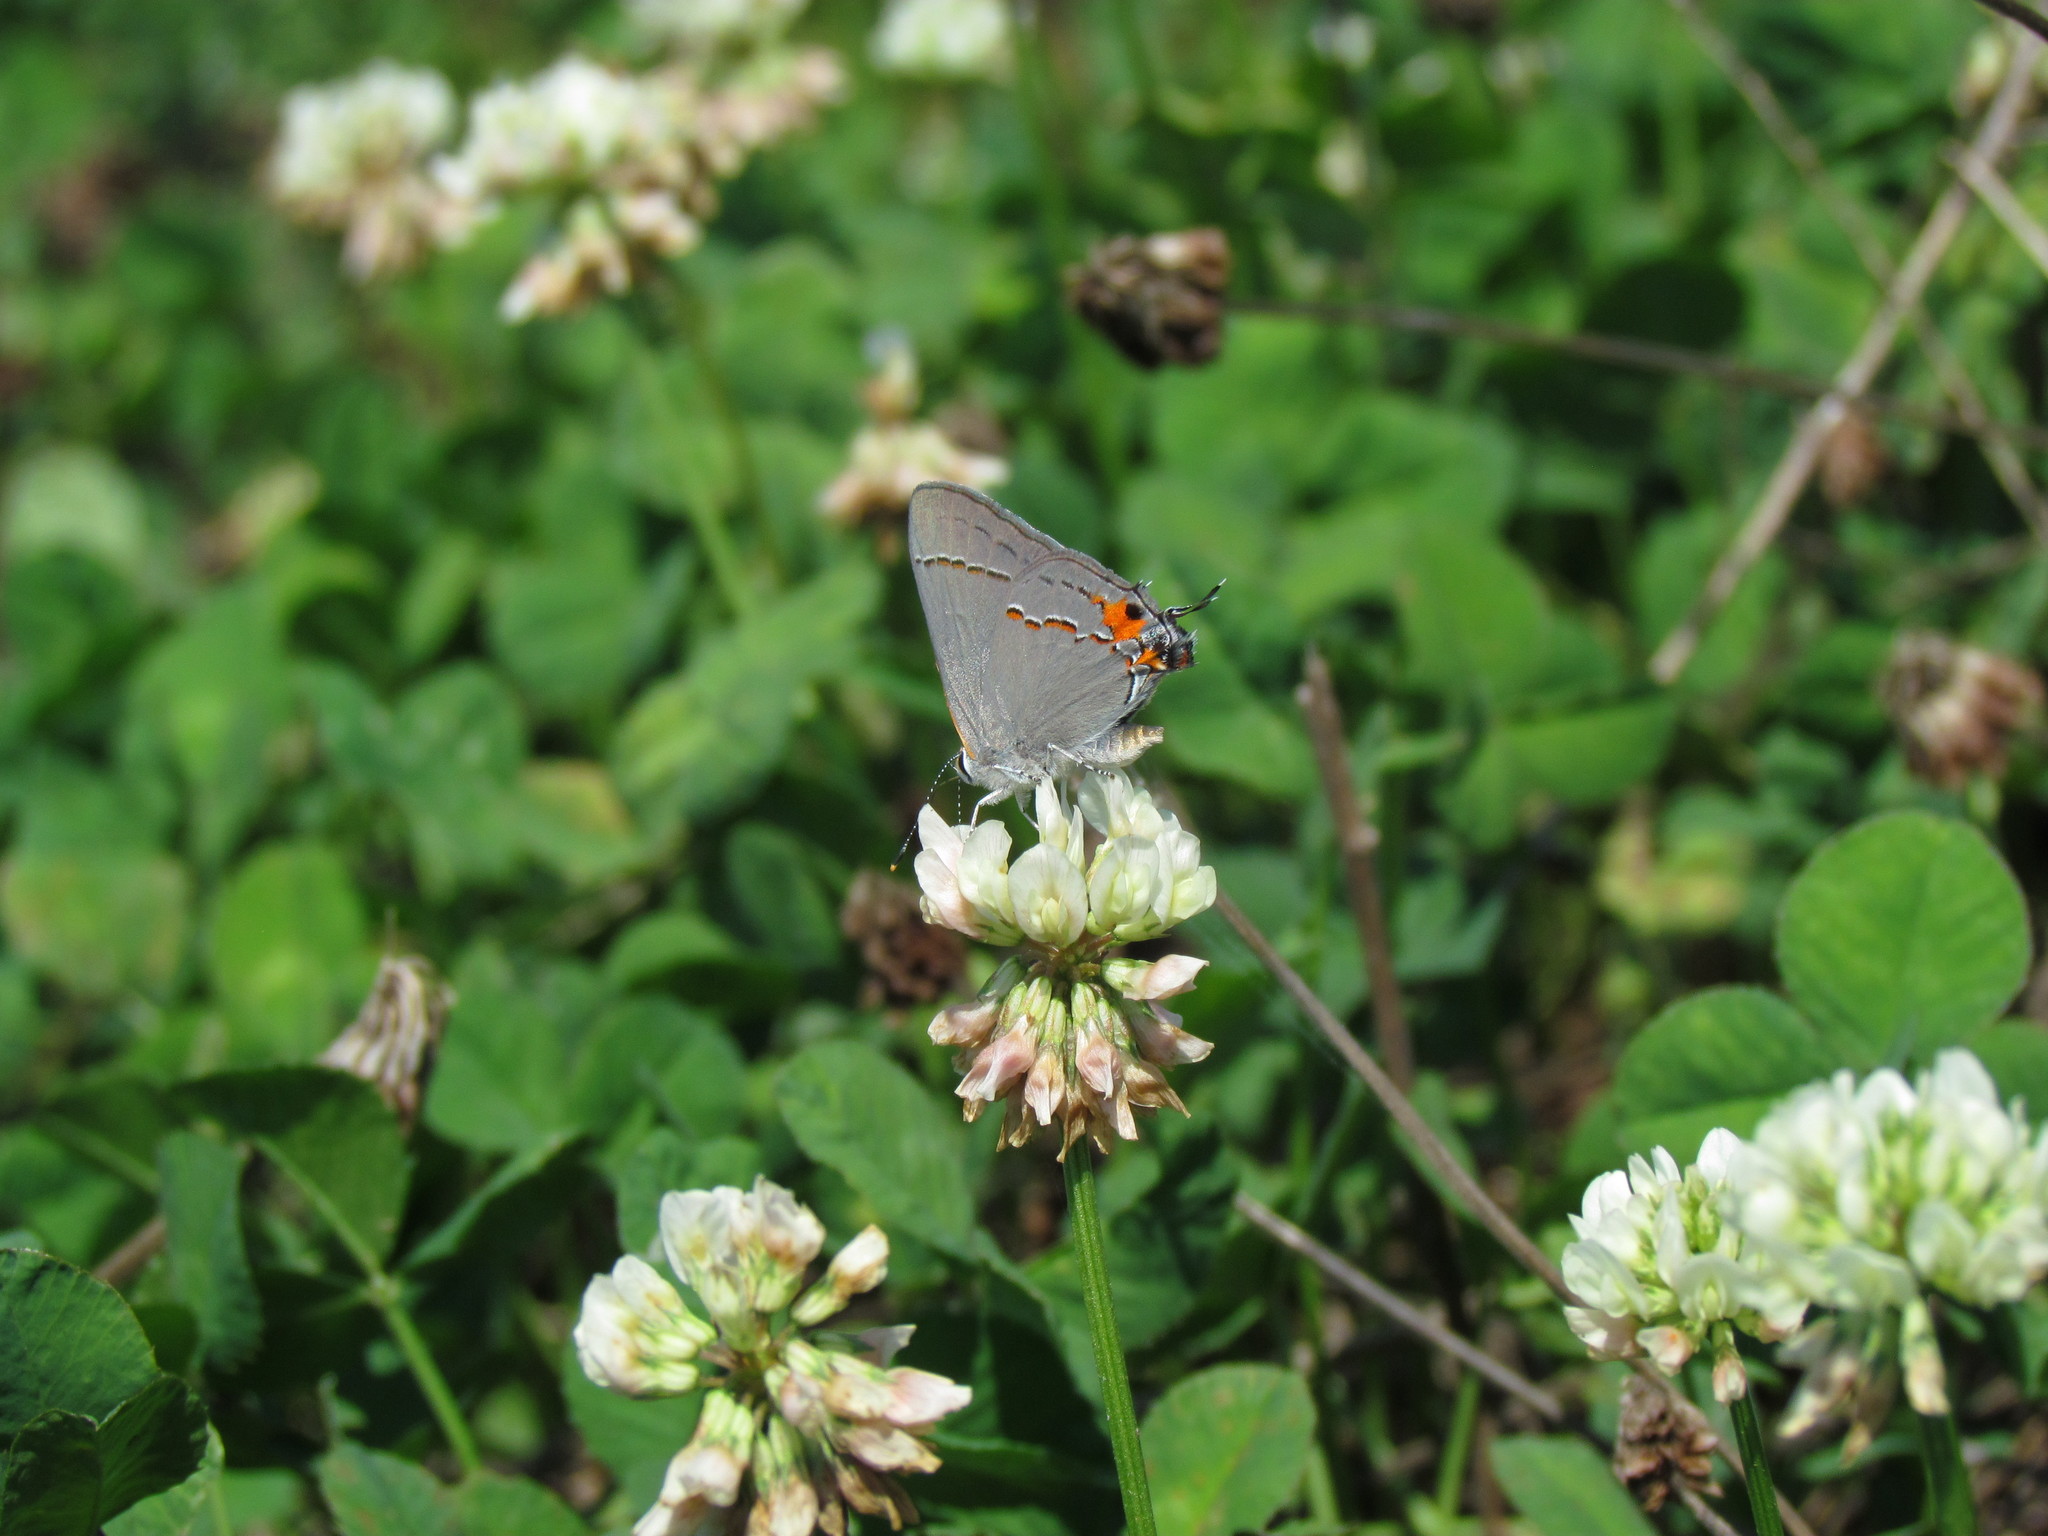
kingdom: Animalia
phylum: Arthropoda
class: Insecta
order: Lepidoptera
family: Lycaenidae
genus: Strymon
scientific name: Strymon melinus
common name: Gray hairstreak
